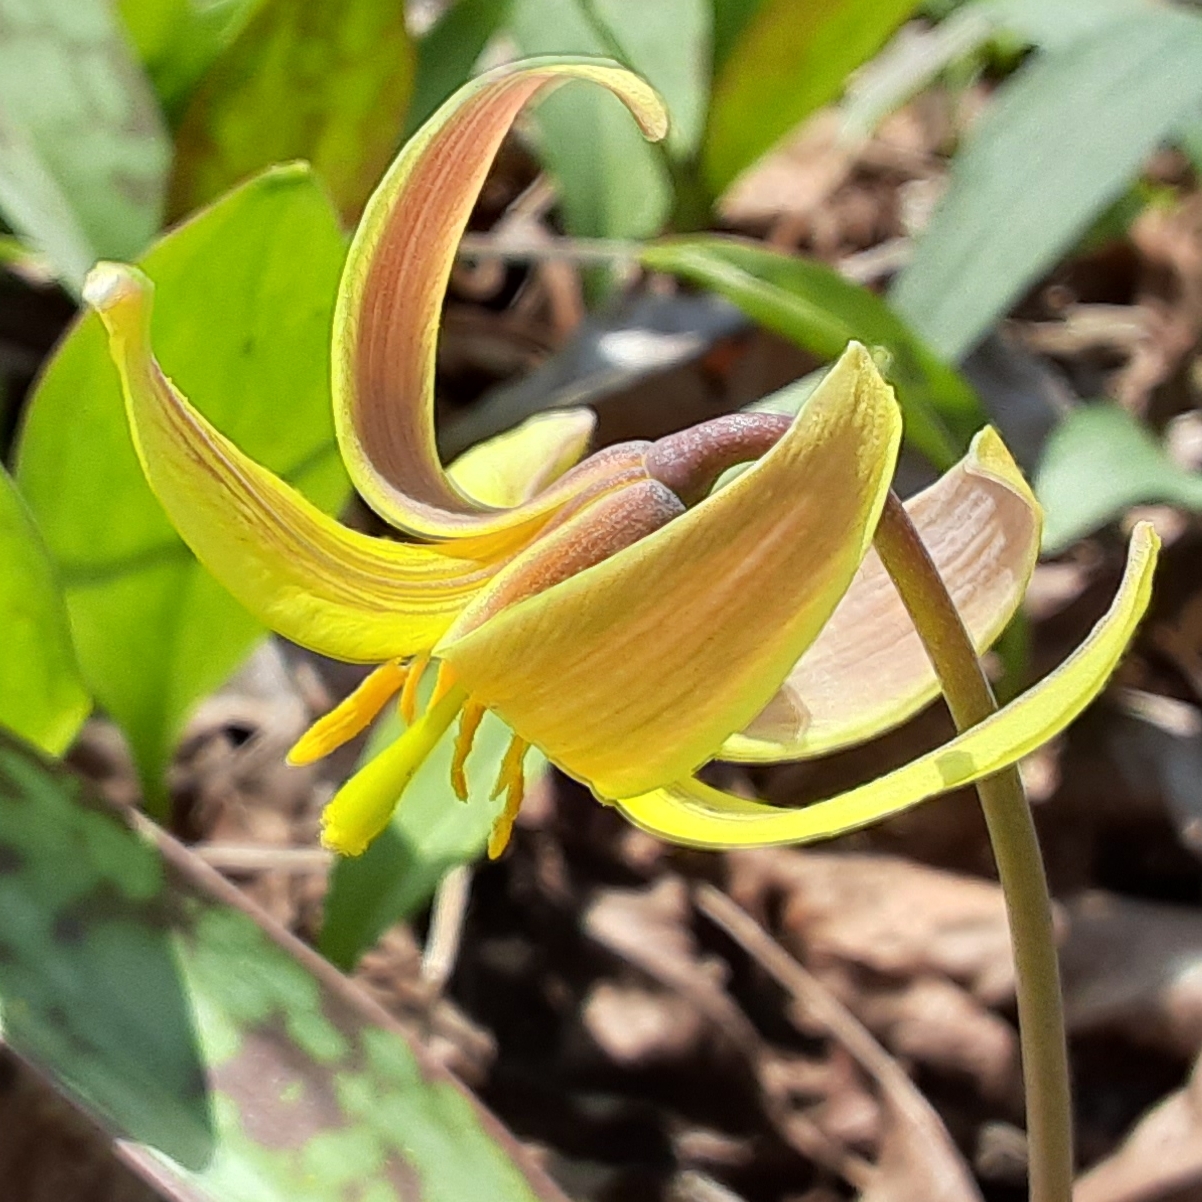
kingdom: Plantae
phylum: Tracheophyta
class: Liliopsida
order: Liliales
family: Liliaceae
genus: Erythronium
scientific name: Erythronium americanum
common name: Yellow adder's-tongue
